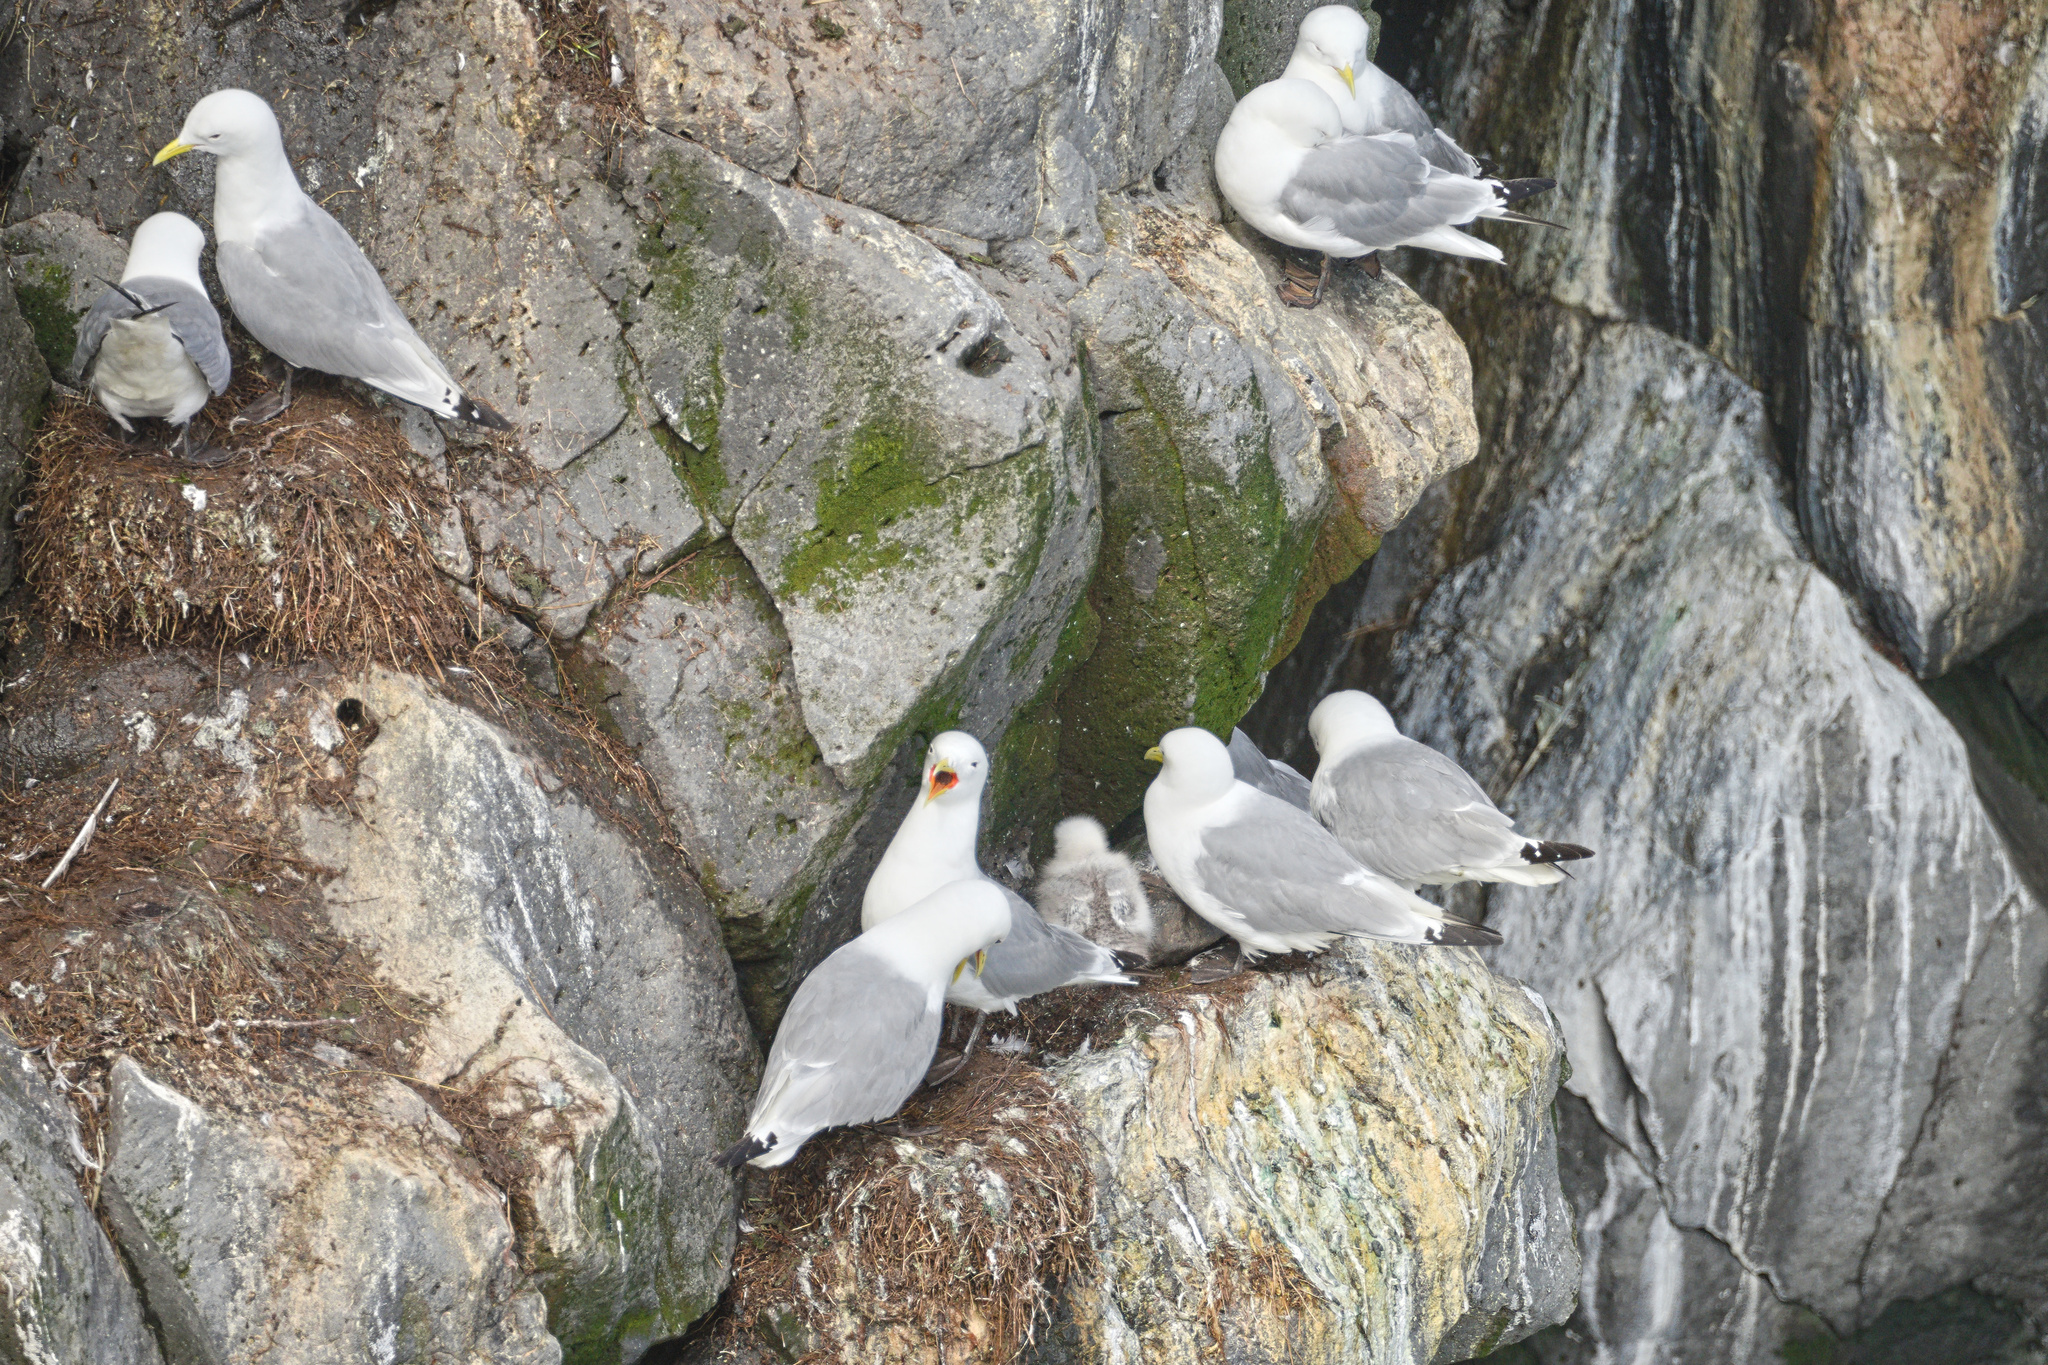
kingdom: Animalia
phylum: Chordata
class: Aves
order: Charadriiformes
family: Laridae
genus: Rissa
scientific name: Rissa tridactyla
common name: Black-legged kittiwake
